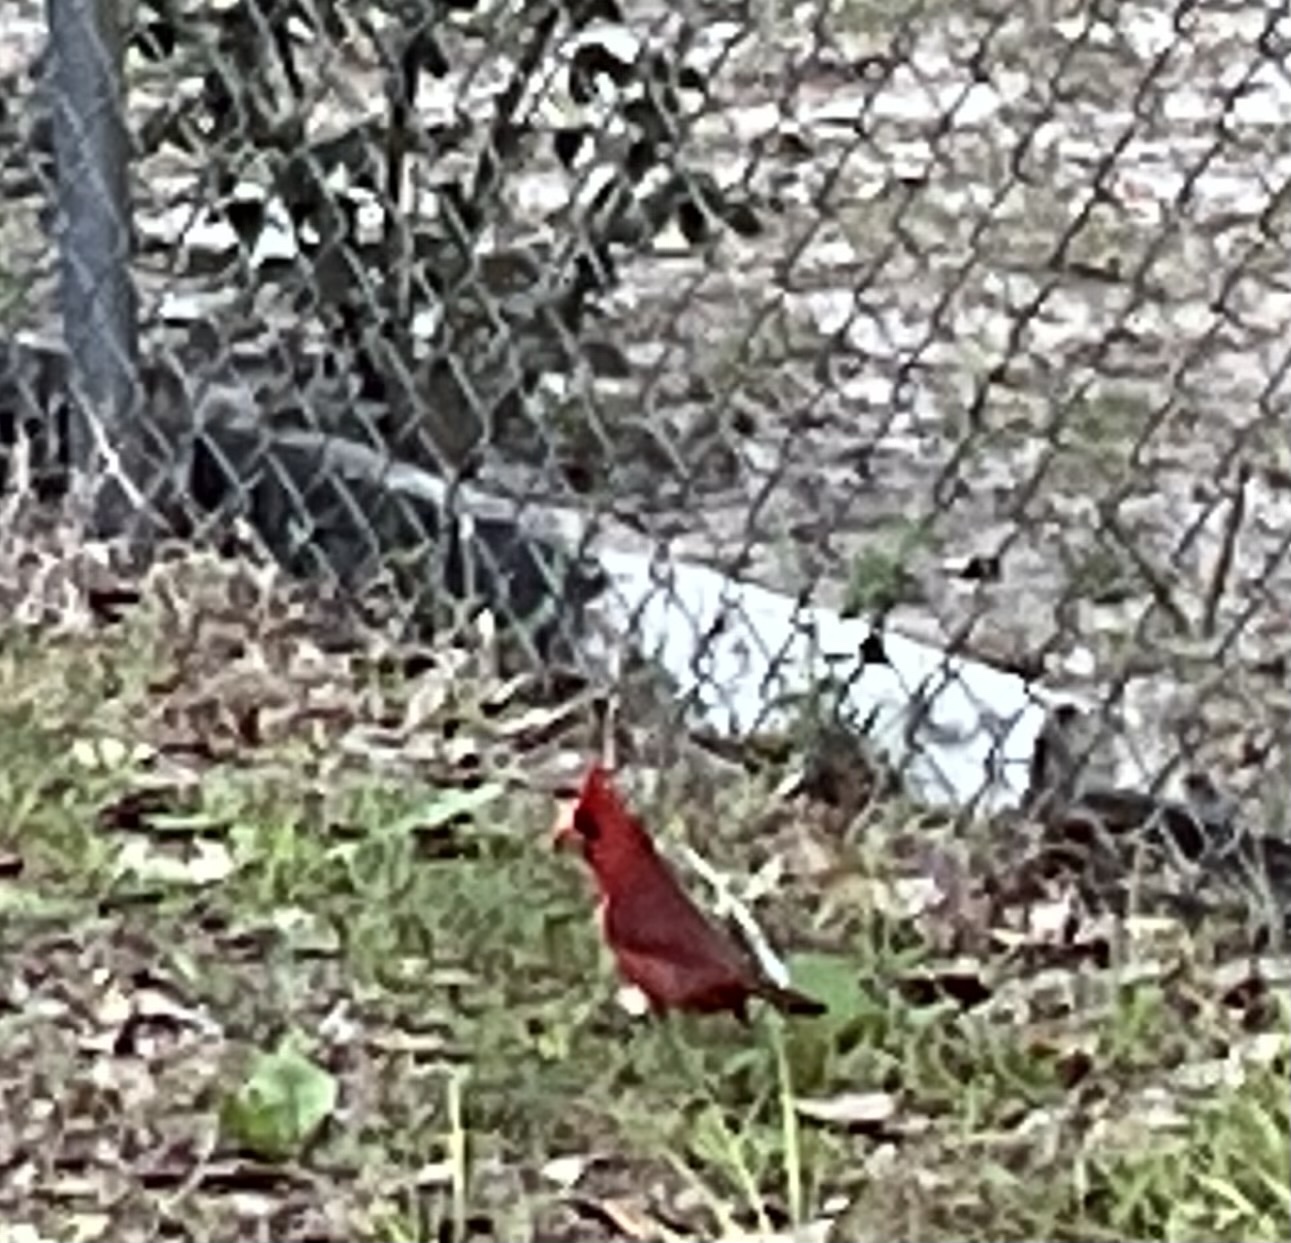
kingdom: Animalia
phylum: Chordata
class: Aves
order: Passeriformes
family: Cardinalidae
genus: Cardinalis
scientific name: Cardinalis cardinalis
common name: Northern cardinal
